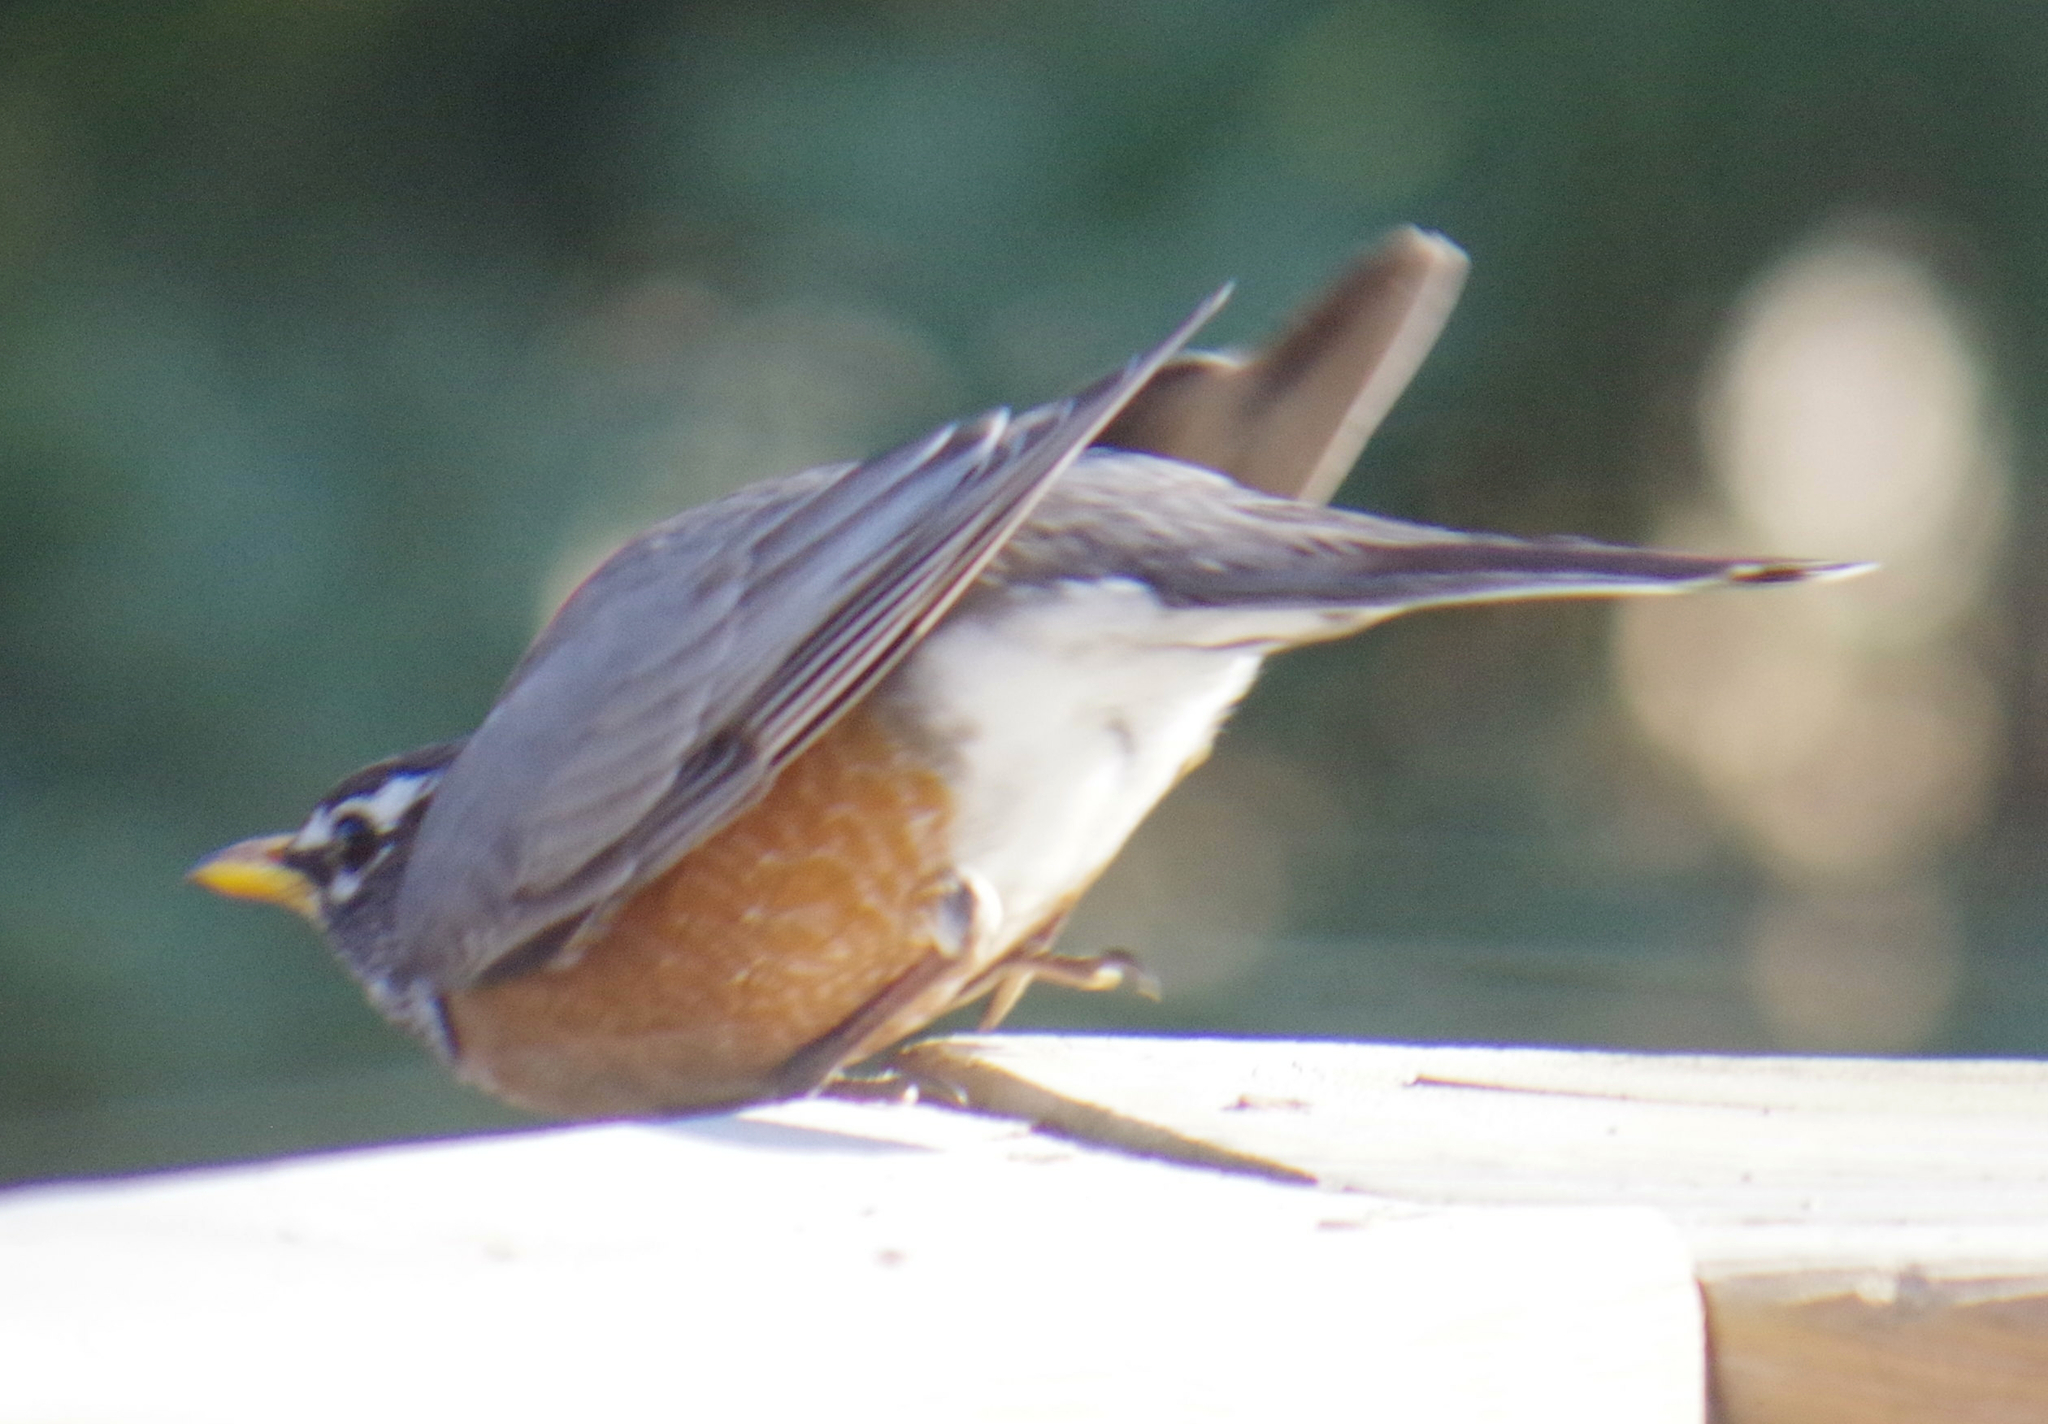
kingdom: Animalia
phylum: Chordata
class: Aves
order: Passeriformes
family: Turdidae
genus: Turdus
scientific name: Turdus migratorius
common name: American robin
